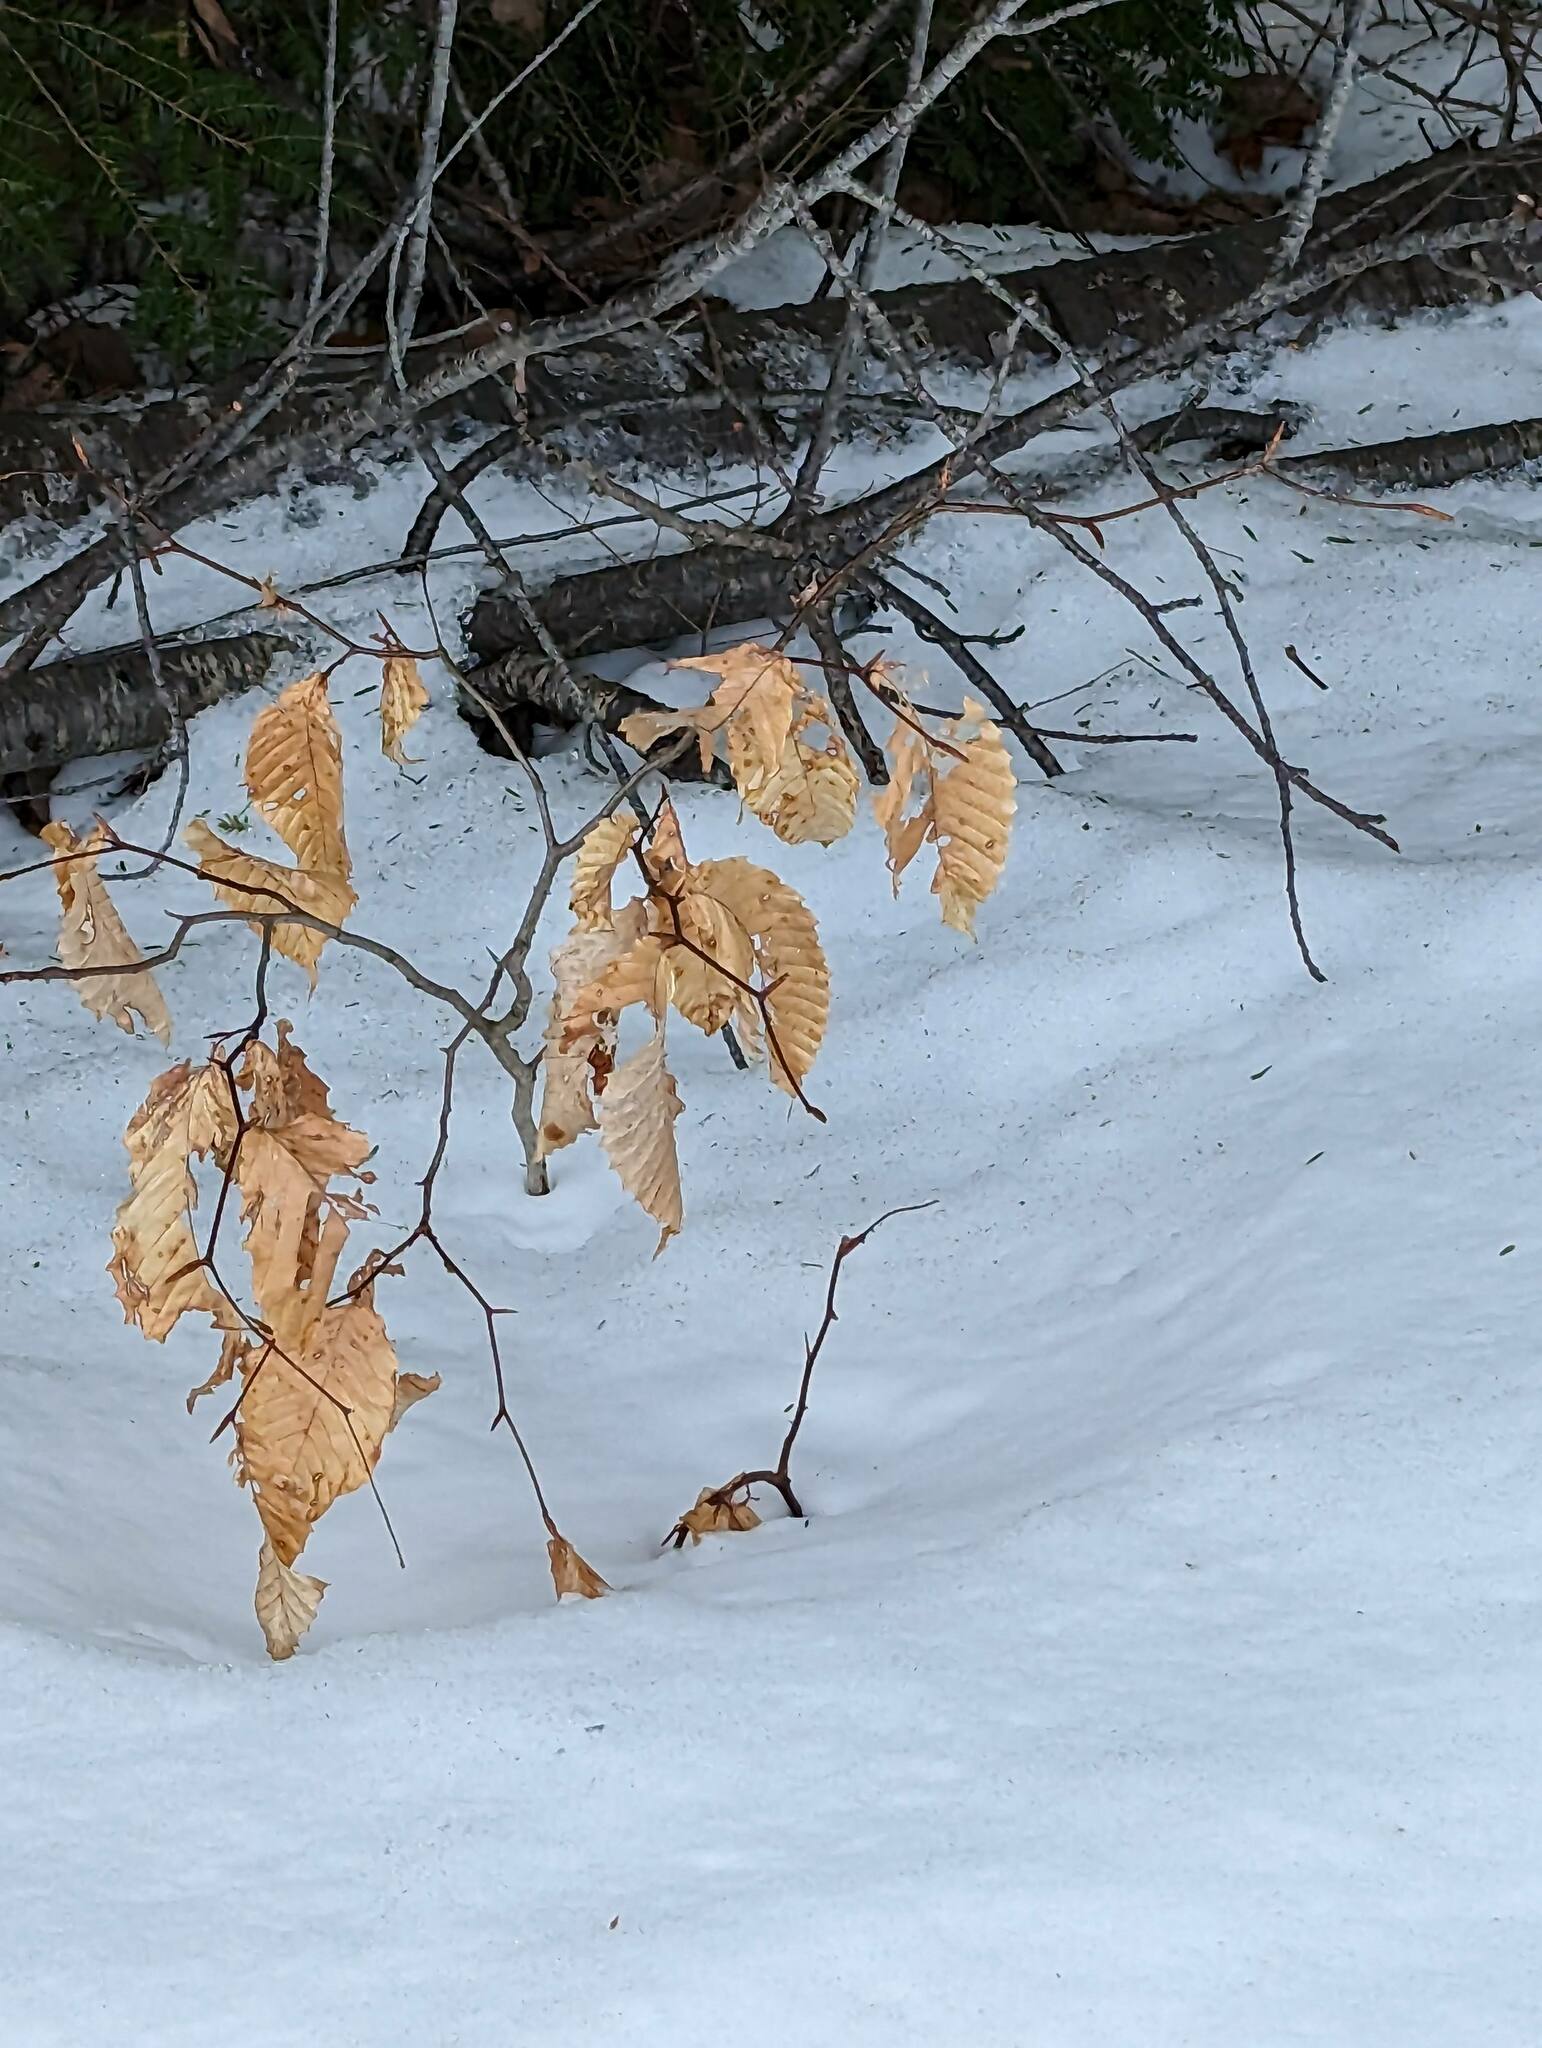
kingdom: Plantae
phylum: Tracheophyta
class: Magnoliopsida
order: Fagales
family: Fagaceae
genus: Fagus
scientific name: Fagus grandifolia
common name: American beech
